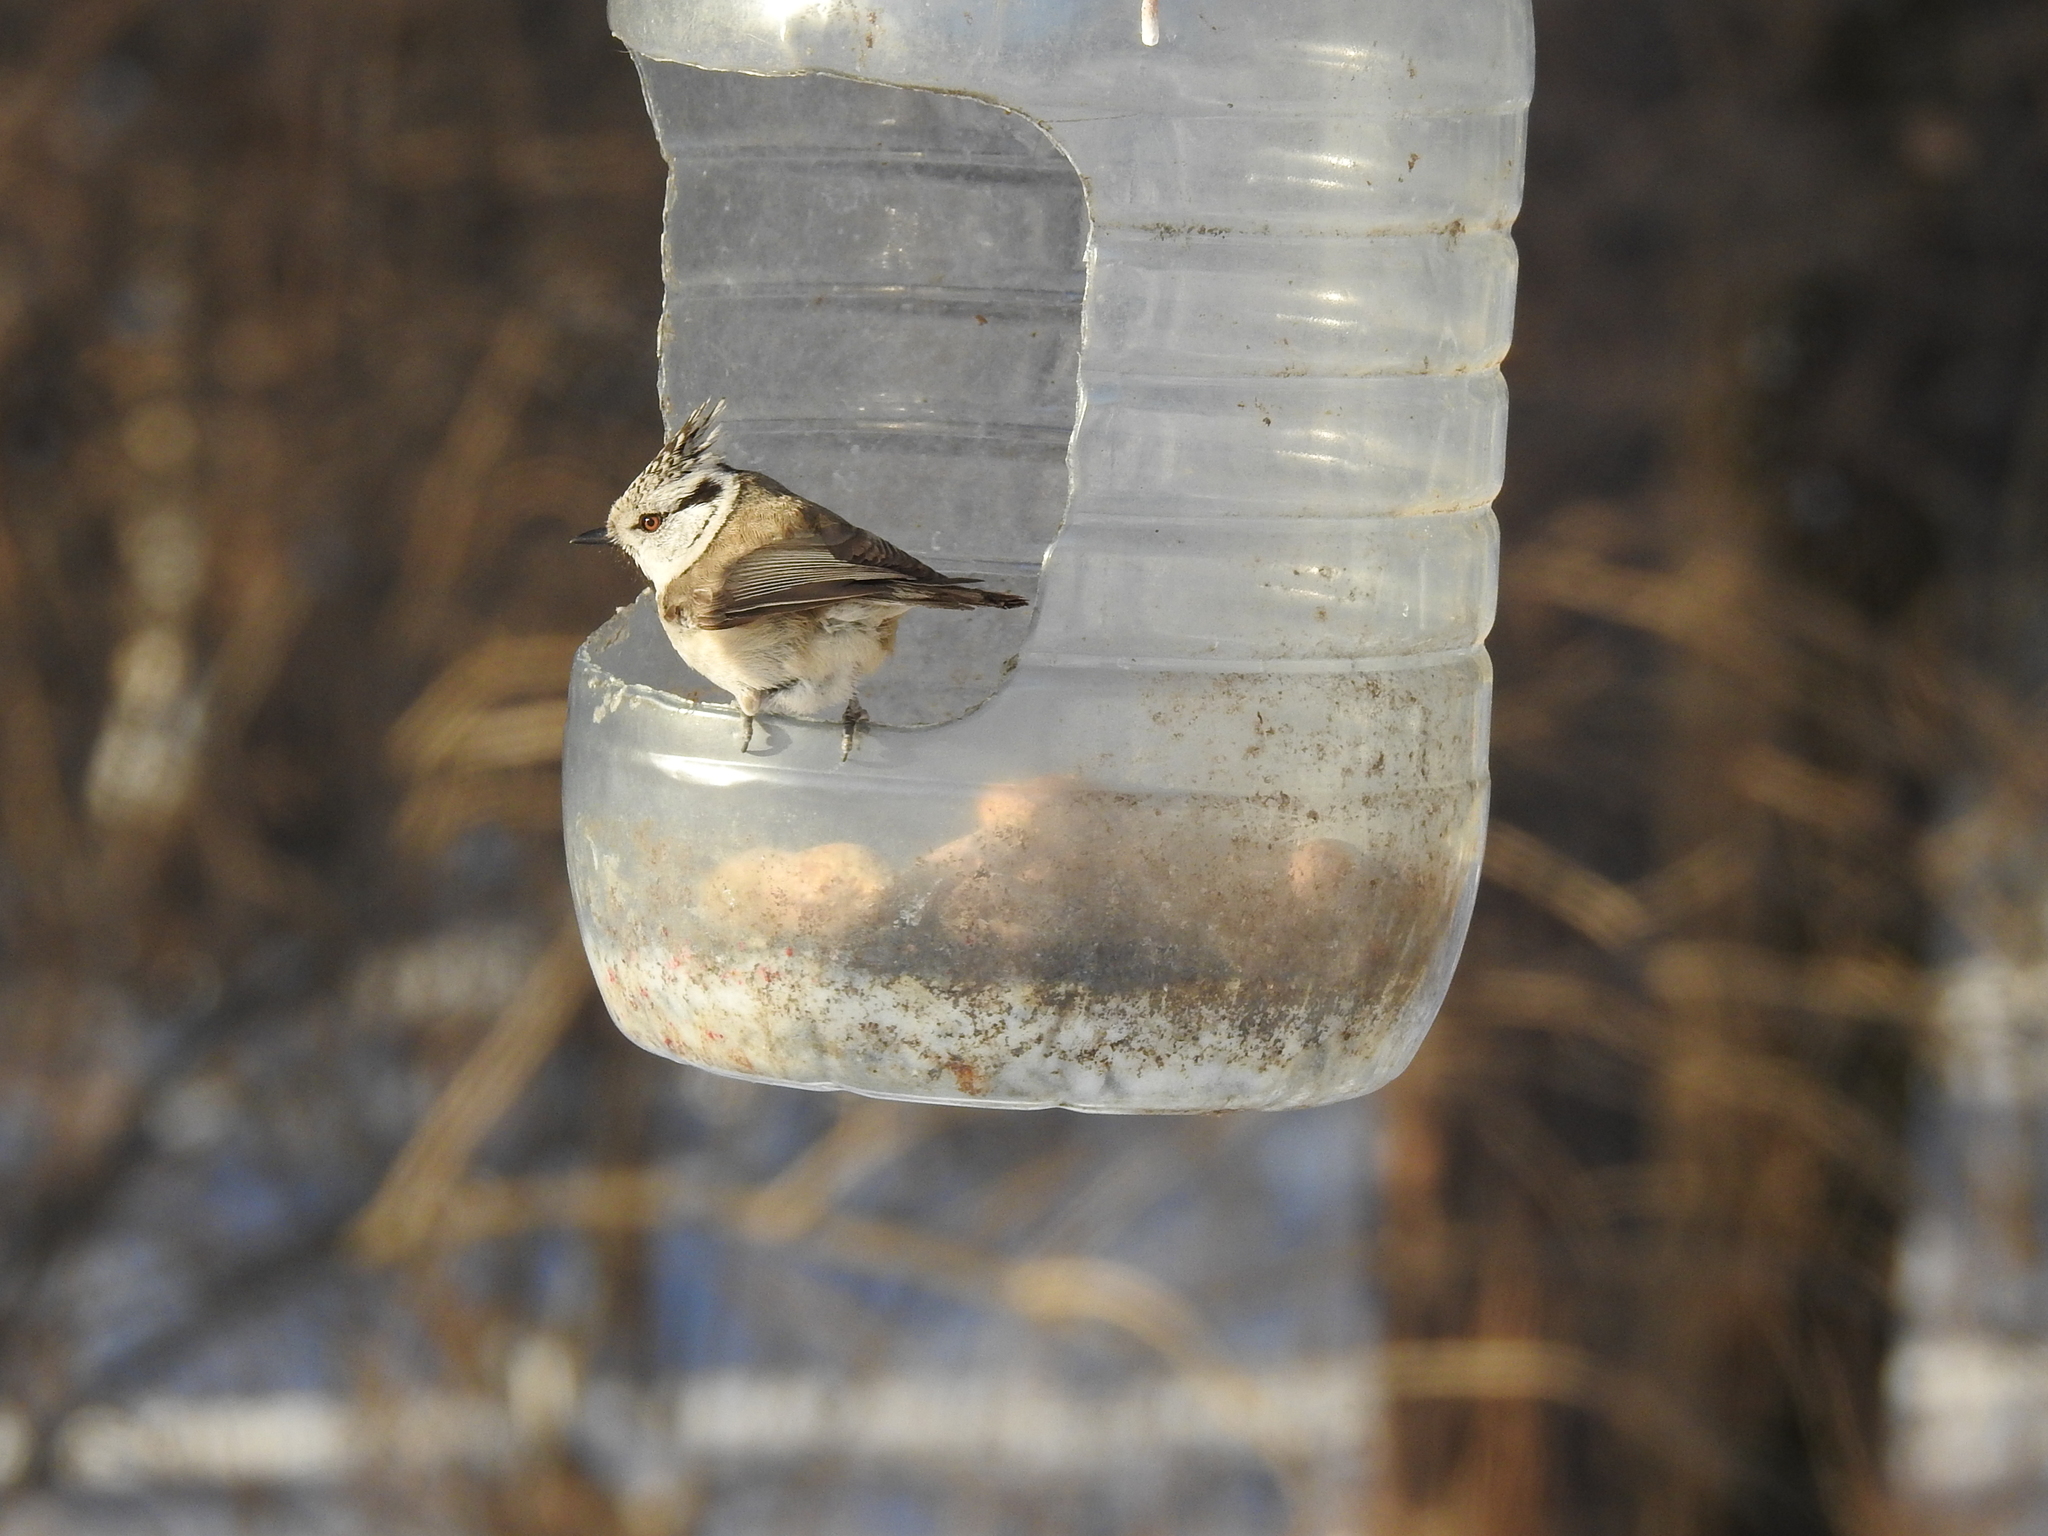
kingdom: Animalia
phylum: Chordata
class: Aves
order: Passeriformes
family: Paridae
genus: Lophophanes
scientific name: Lophophanes cristatus
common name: European crested tit
